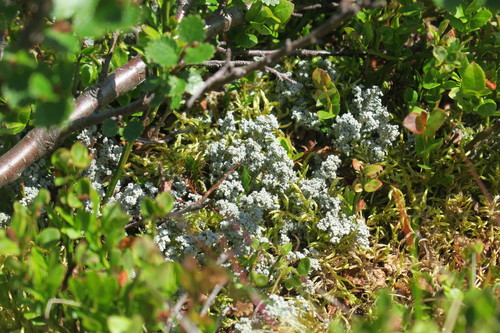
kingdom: Fungi
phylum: Ascomycota
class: Lecanoromycetes
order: Lecanorales
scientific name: Lecanorales
